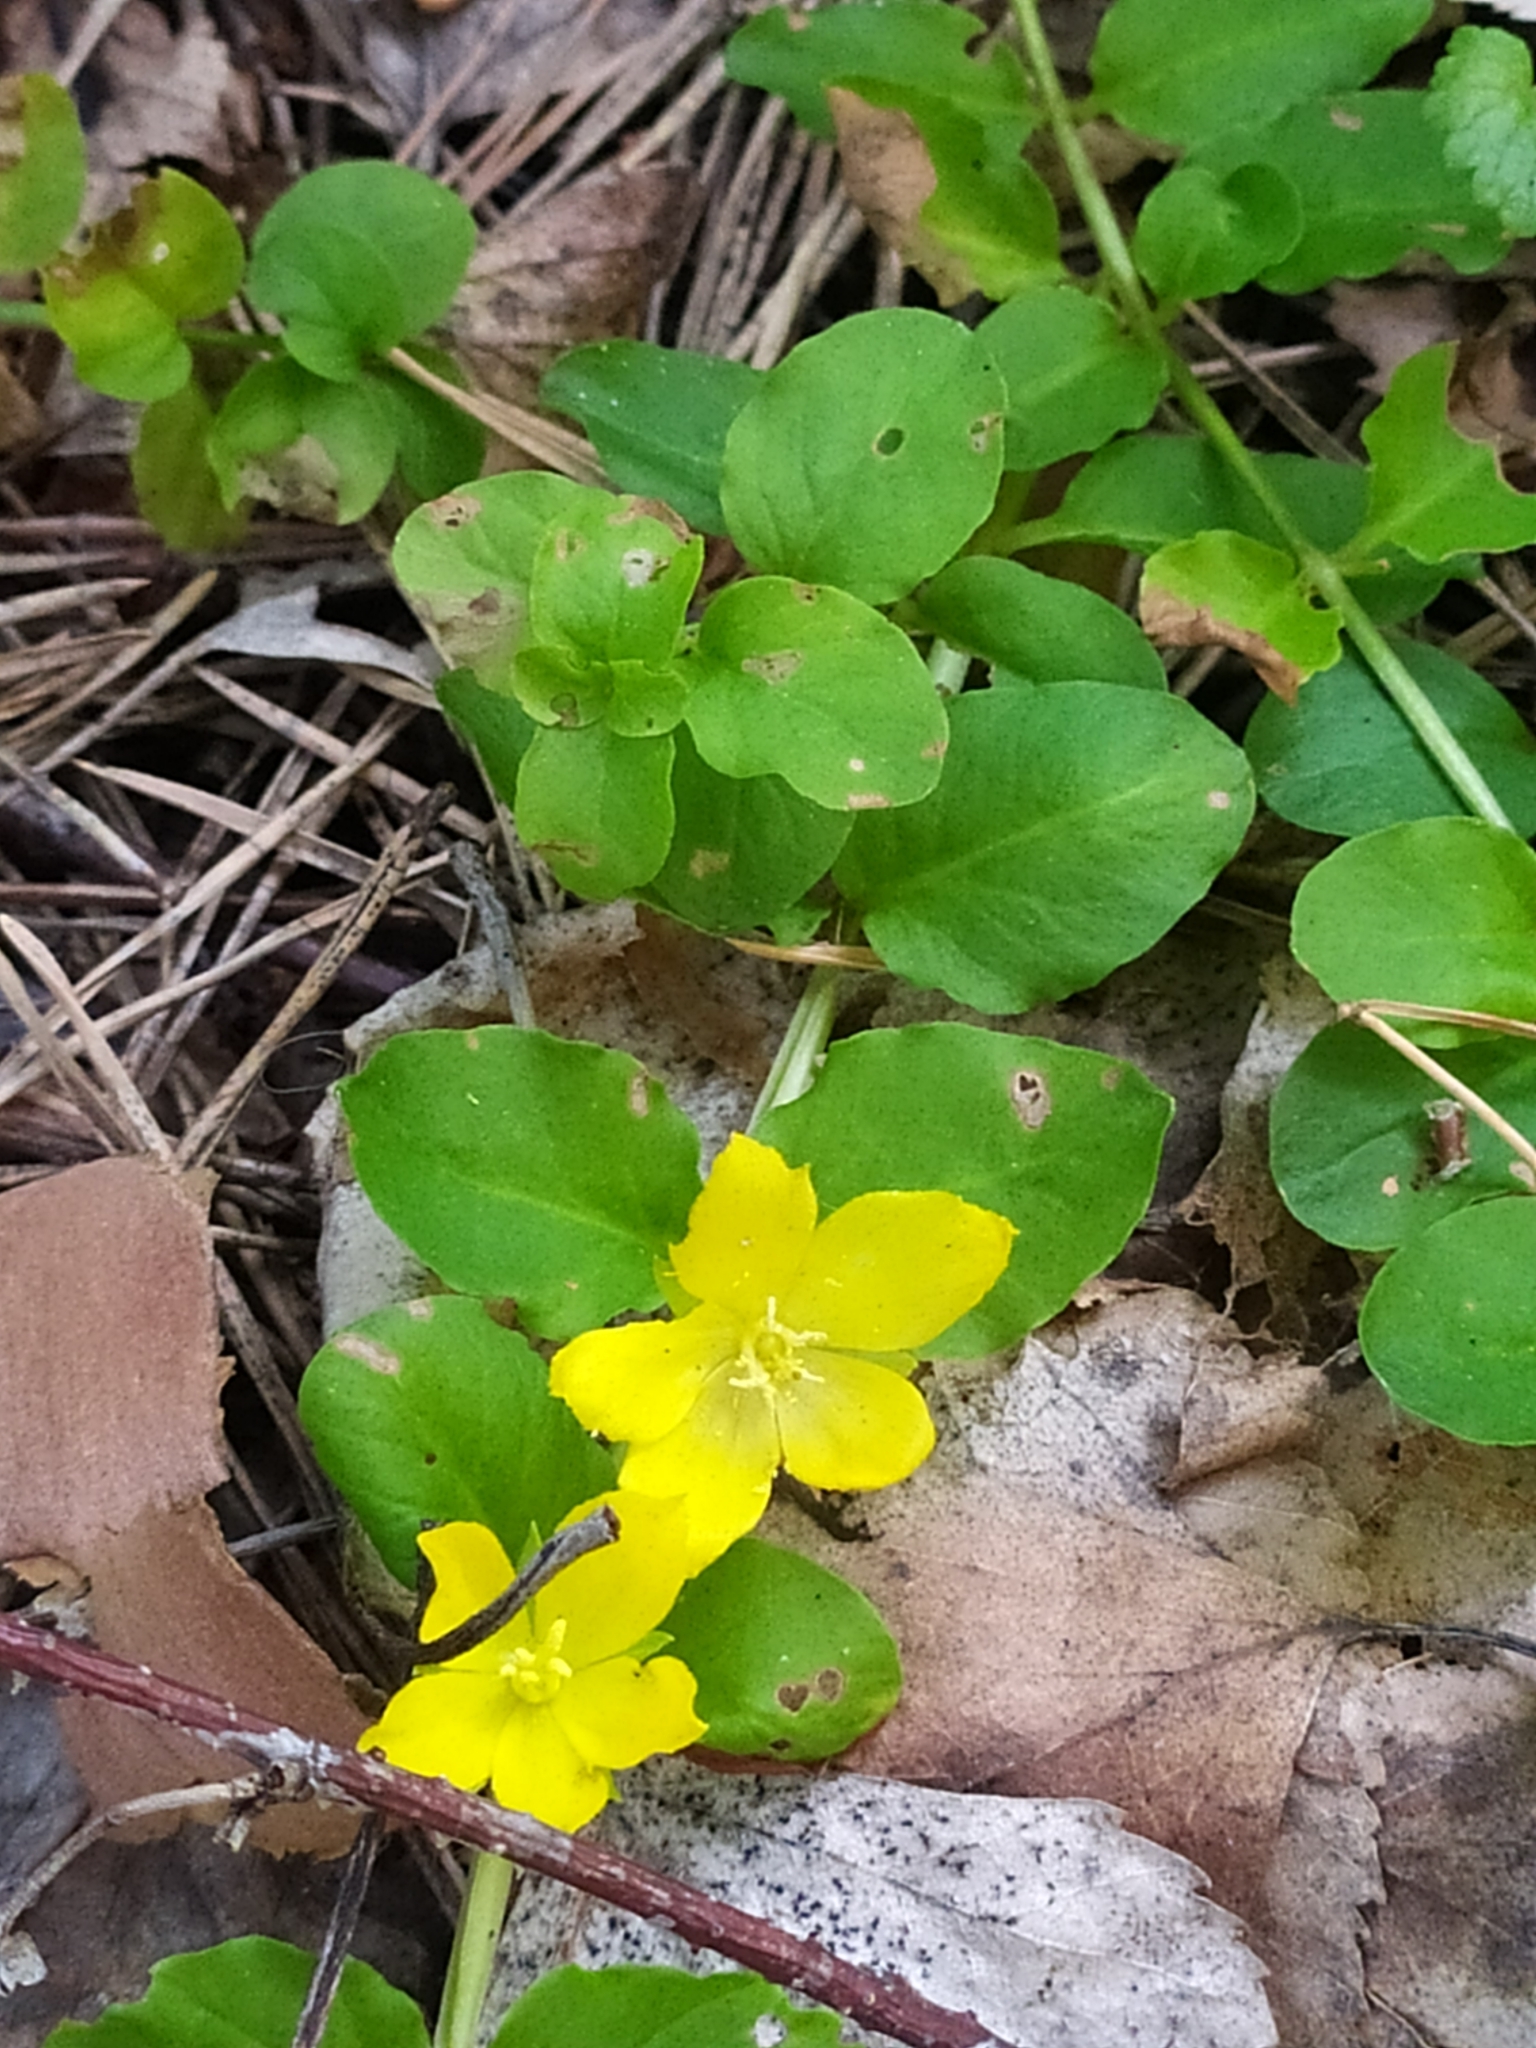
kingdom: Plantae
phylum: Tracheophyta
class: Magnoliopsida
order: Ericales
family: Primulaceae
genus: Lysimachia
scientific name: Lysimachia nummularia
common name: Moneywort
